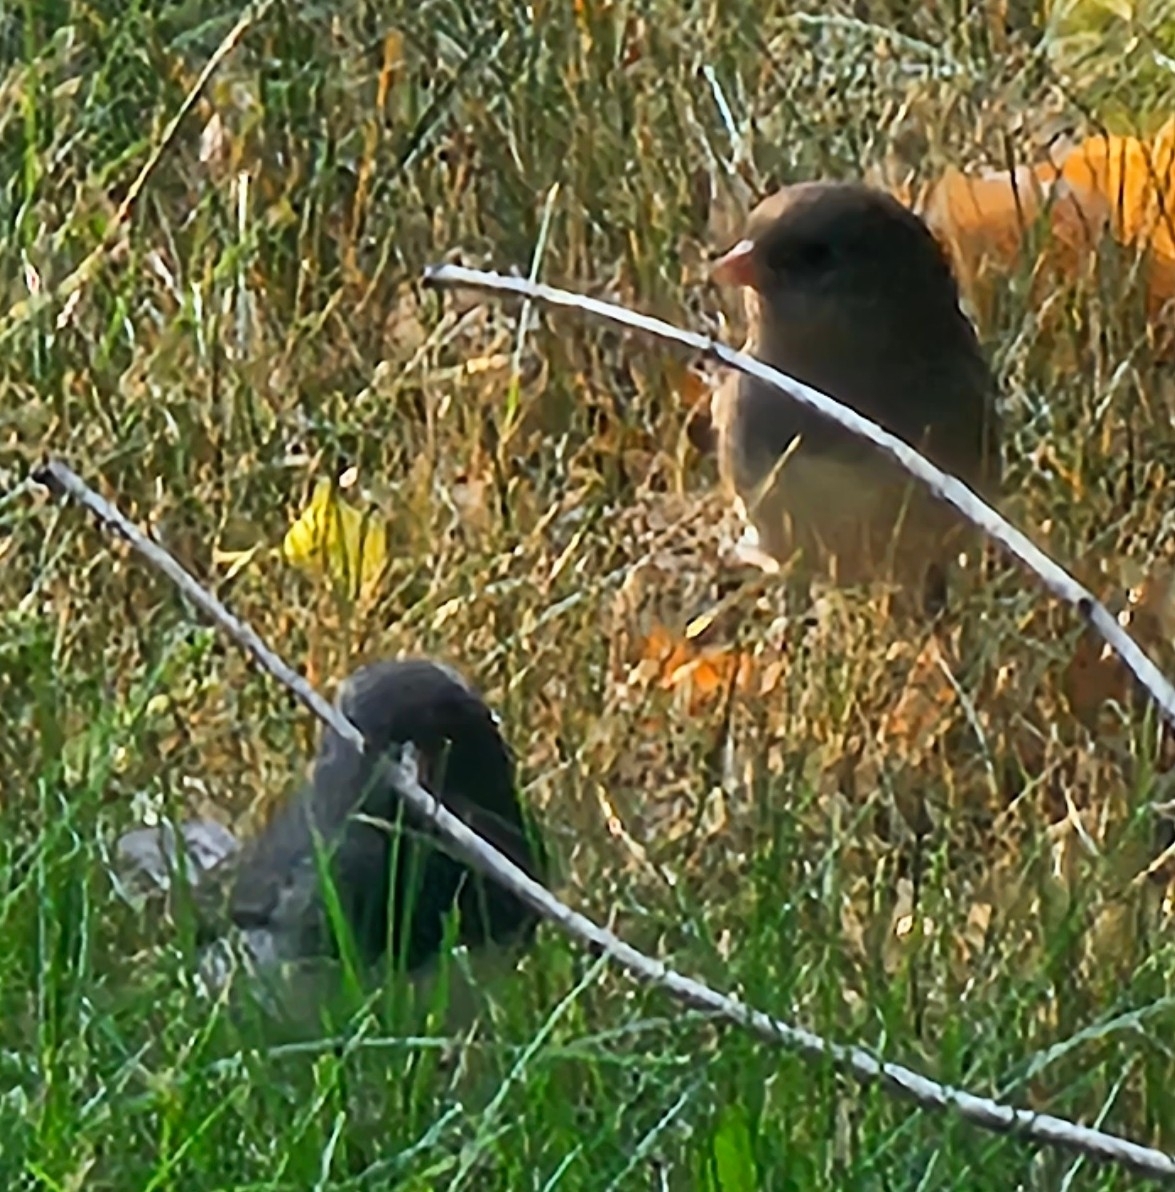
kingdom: Animalia
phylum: Chordata
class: Aves
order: Passeriformes
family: Passerellidae
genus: Junco
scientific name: Junco hyemalis
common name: Dark-eyed junco
